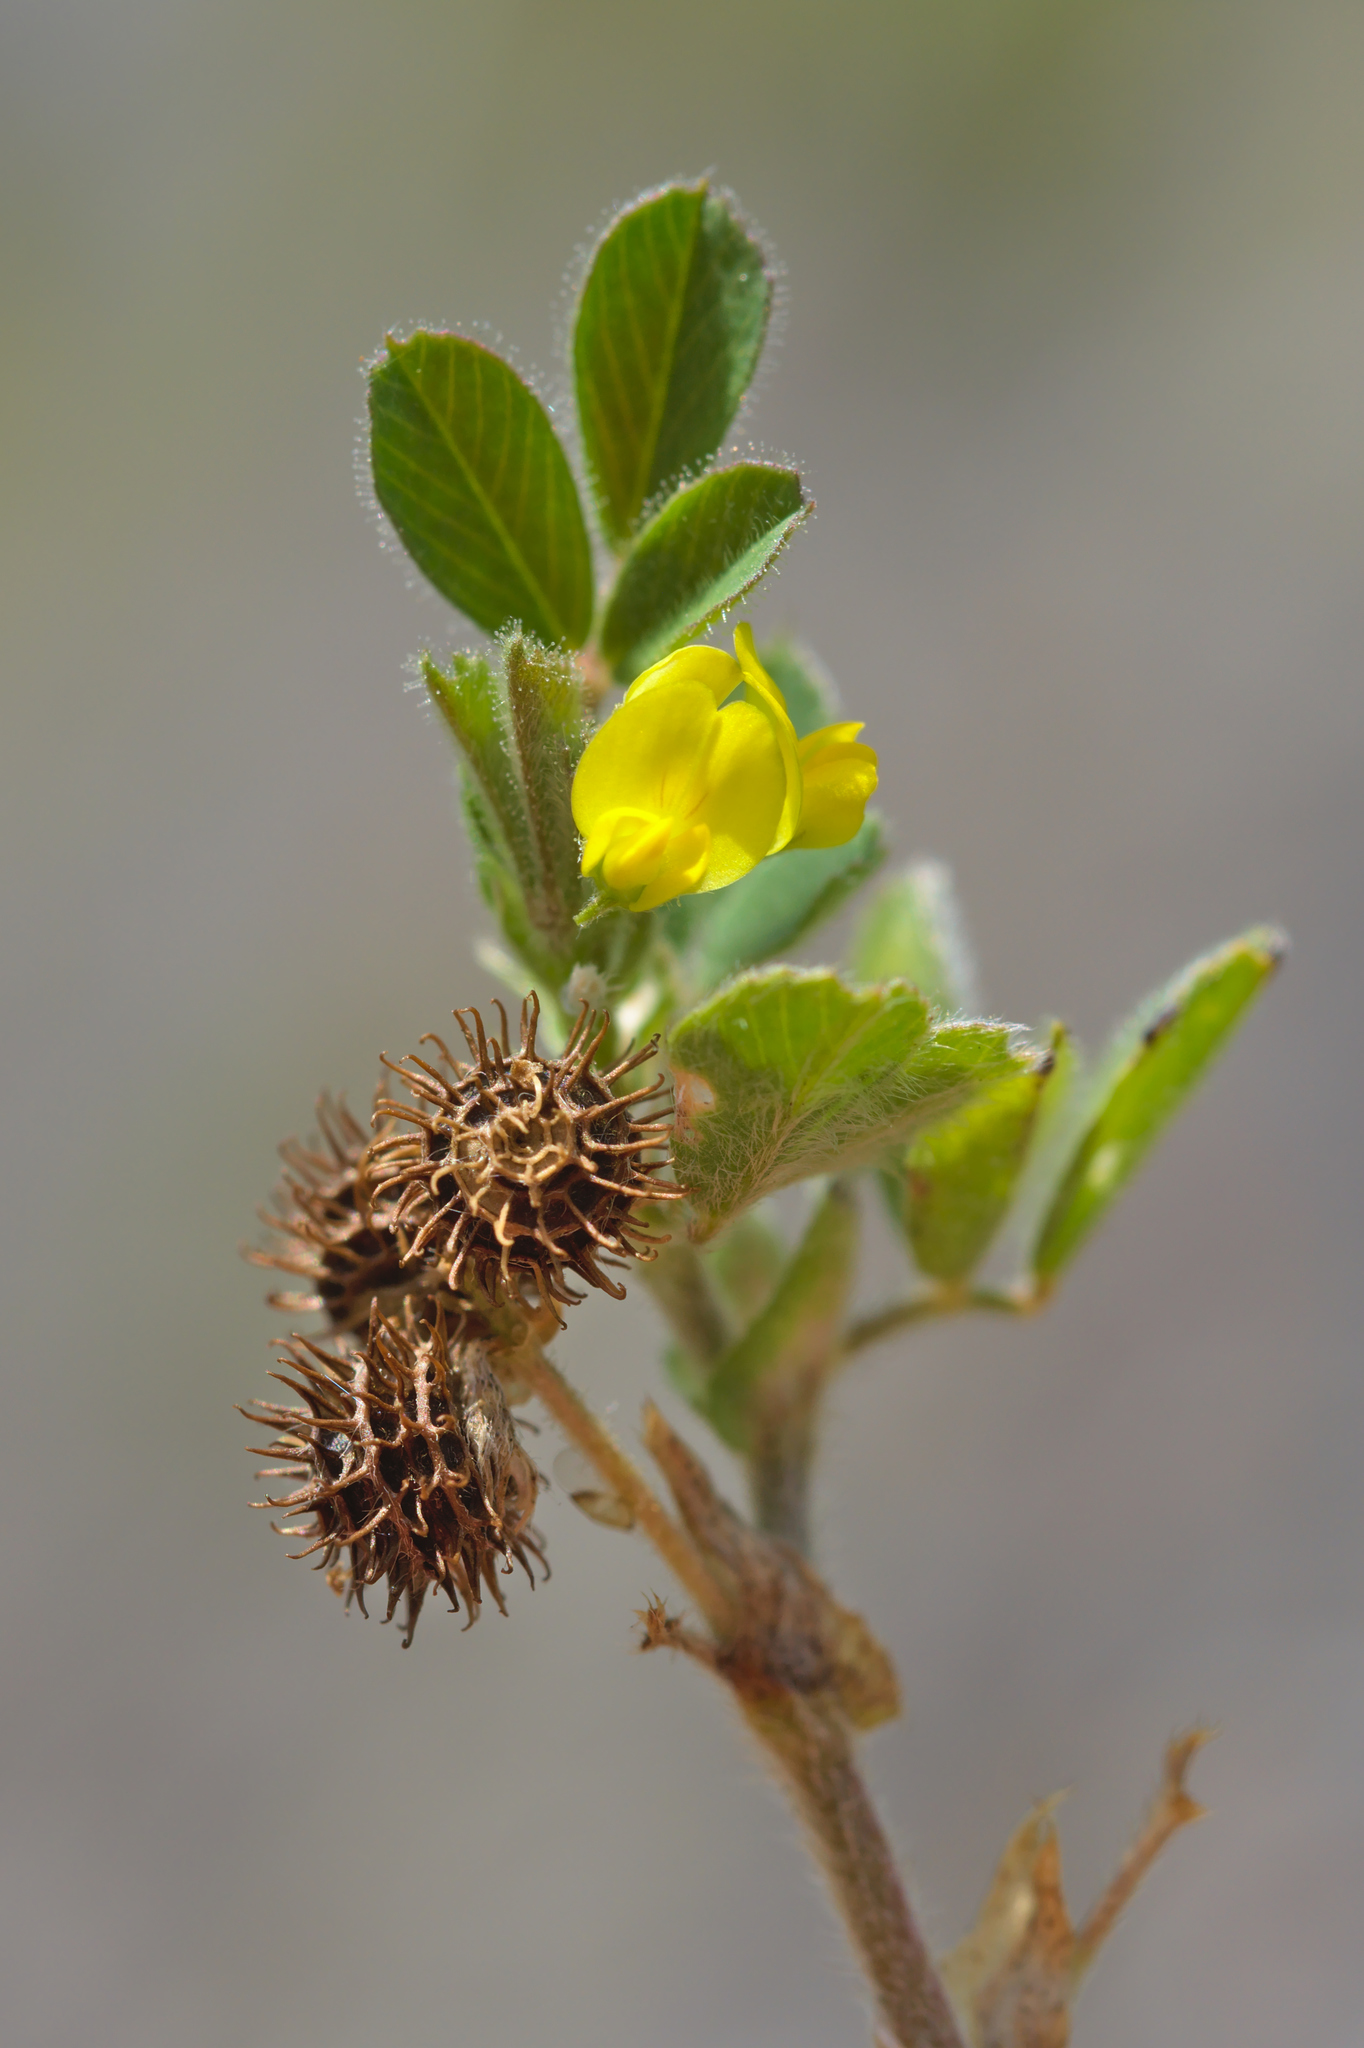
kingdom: Plantae
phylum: Tracheophyta
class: Magnoliopsida
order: Fabales
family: Fabaceae
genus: Medicago
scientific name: Medicago minima
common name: Little bur-clover
